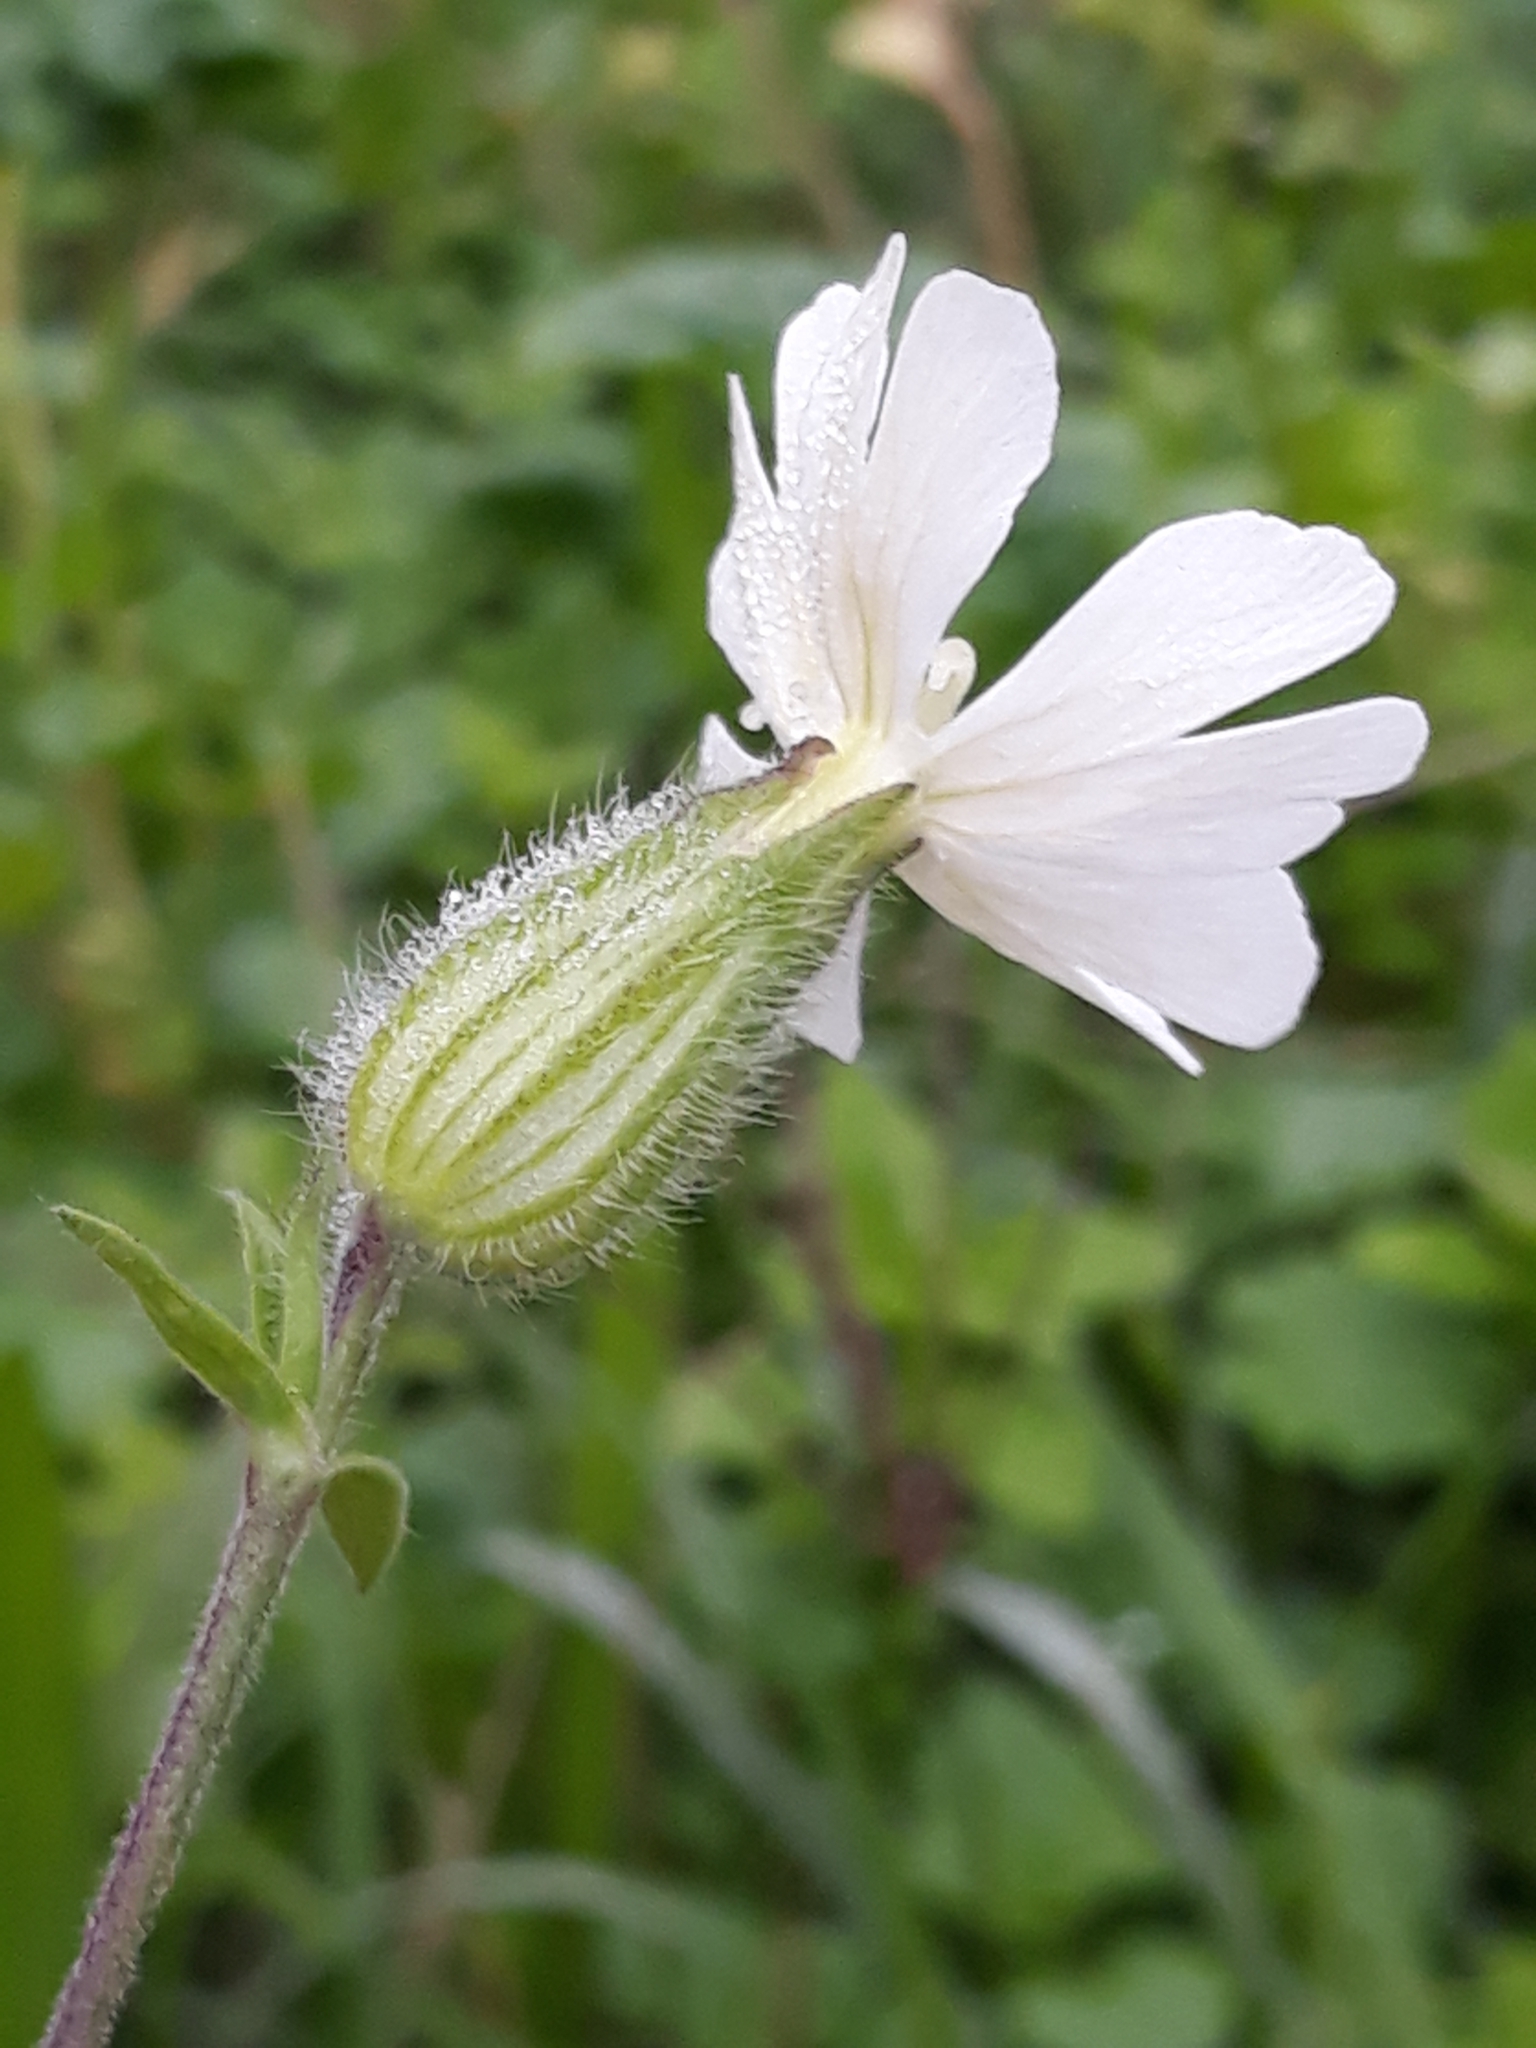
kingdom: Plantae
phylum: Tracheophyta
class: Magnoliopsida
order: Caryophyllales
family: Caryophyllaceae
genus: Silene
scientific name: Silene latifolia
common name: White campion
